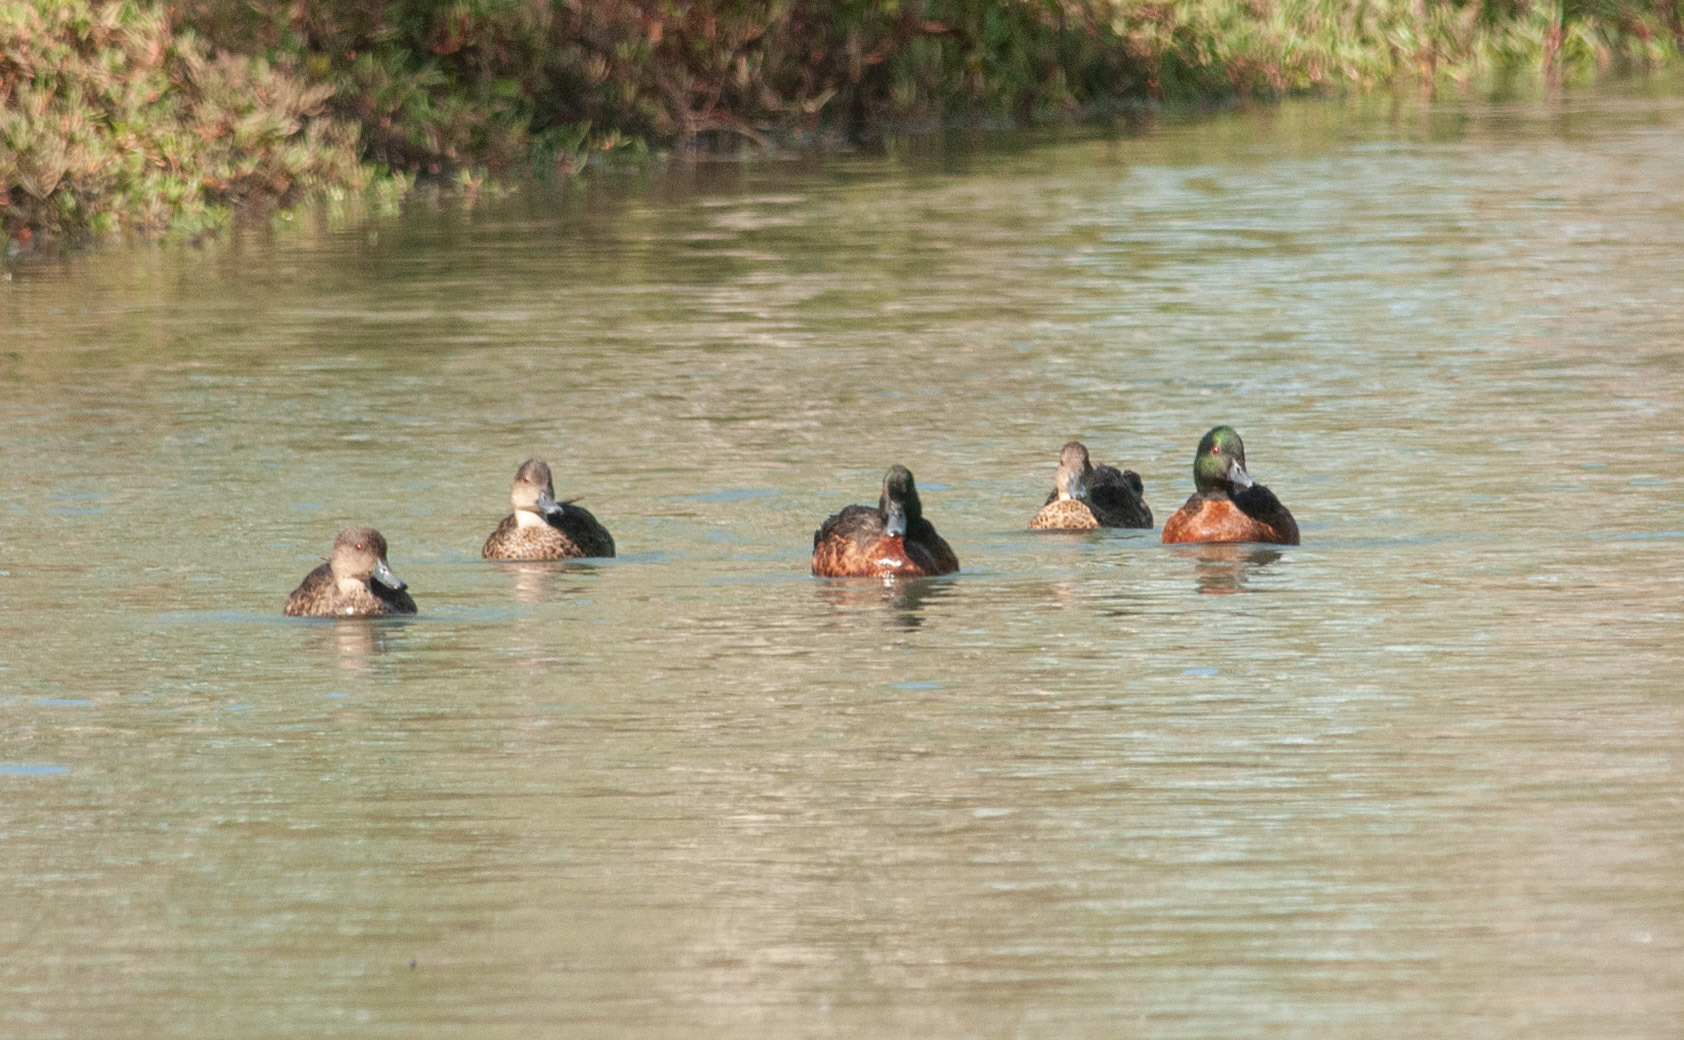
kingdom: Animalia
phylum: Chordata
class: Aves
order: Anseriformes
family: Anatidae
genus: Anas
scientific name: Anas castanea
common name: Chestnut teal
